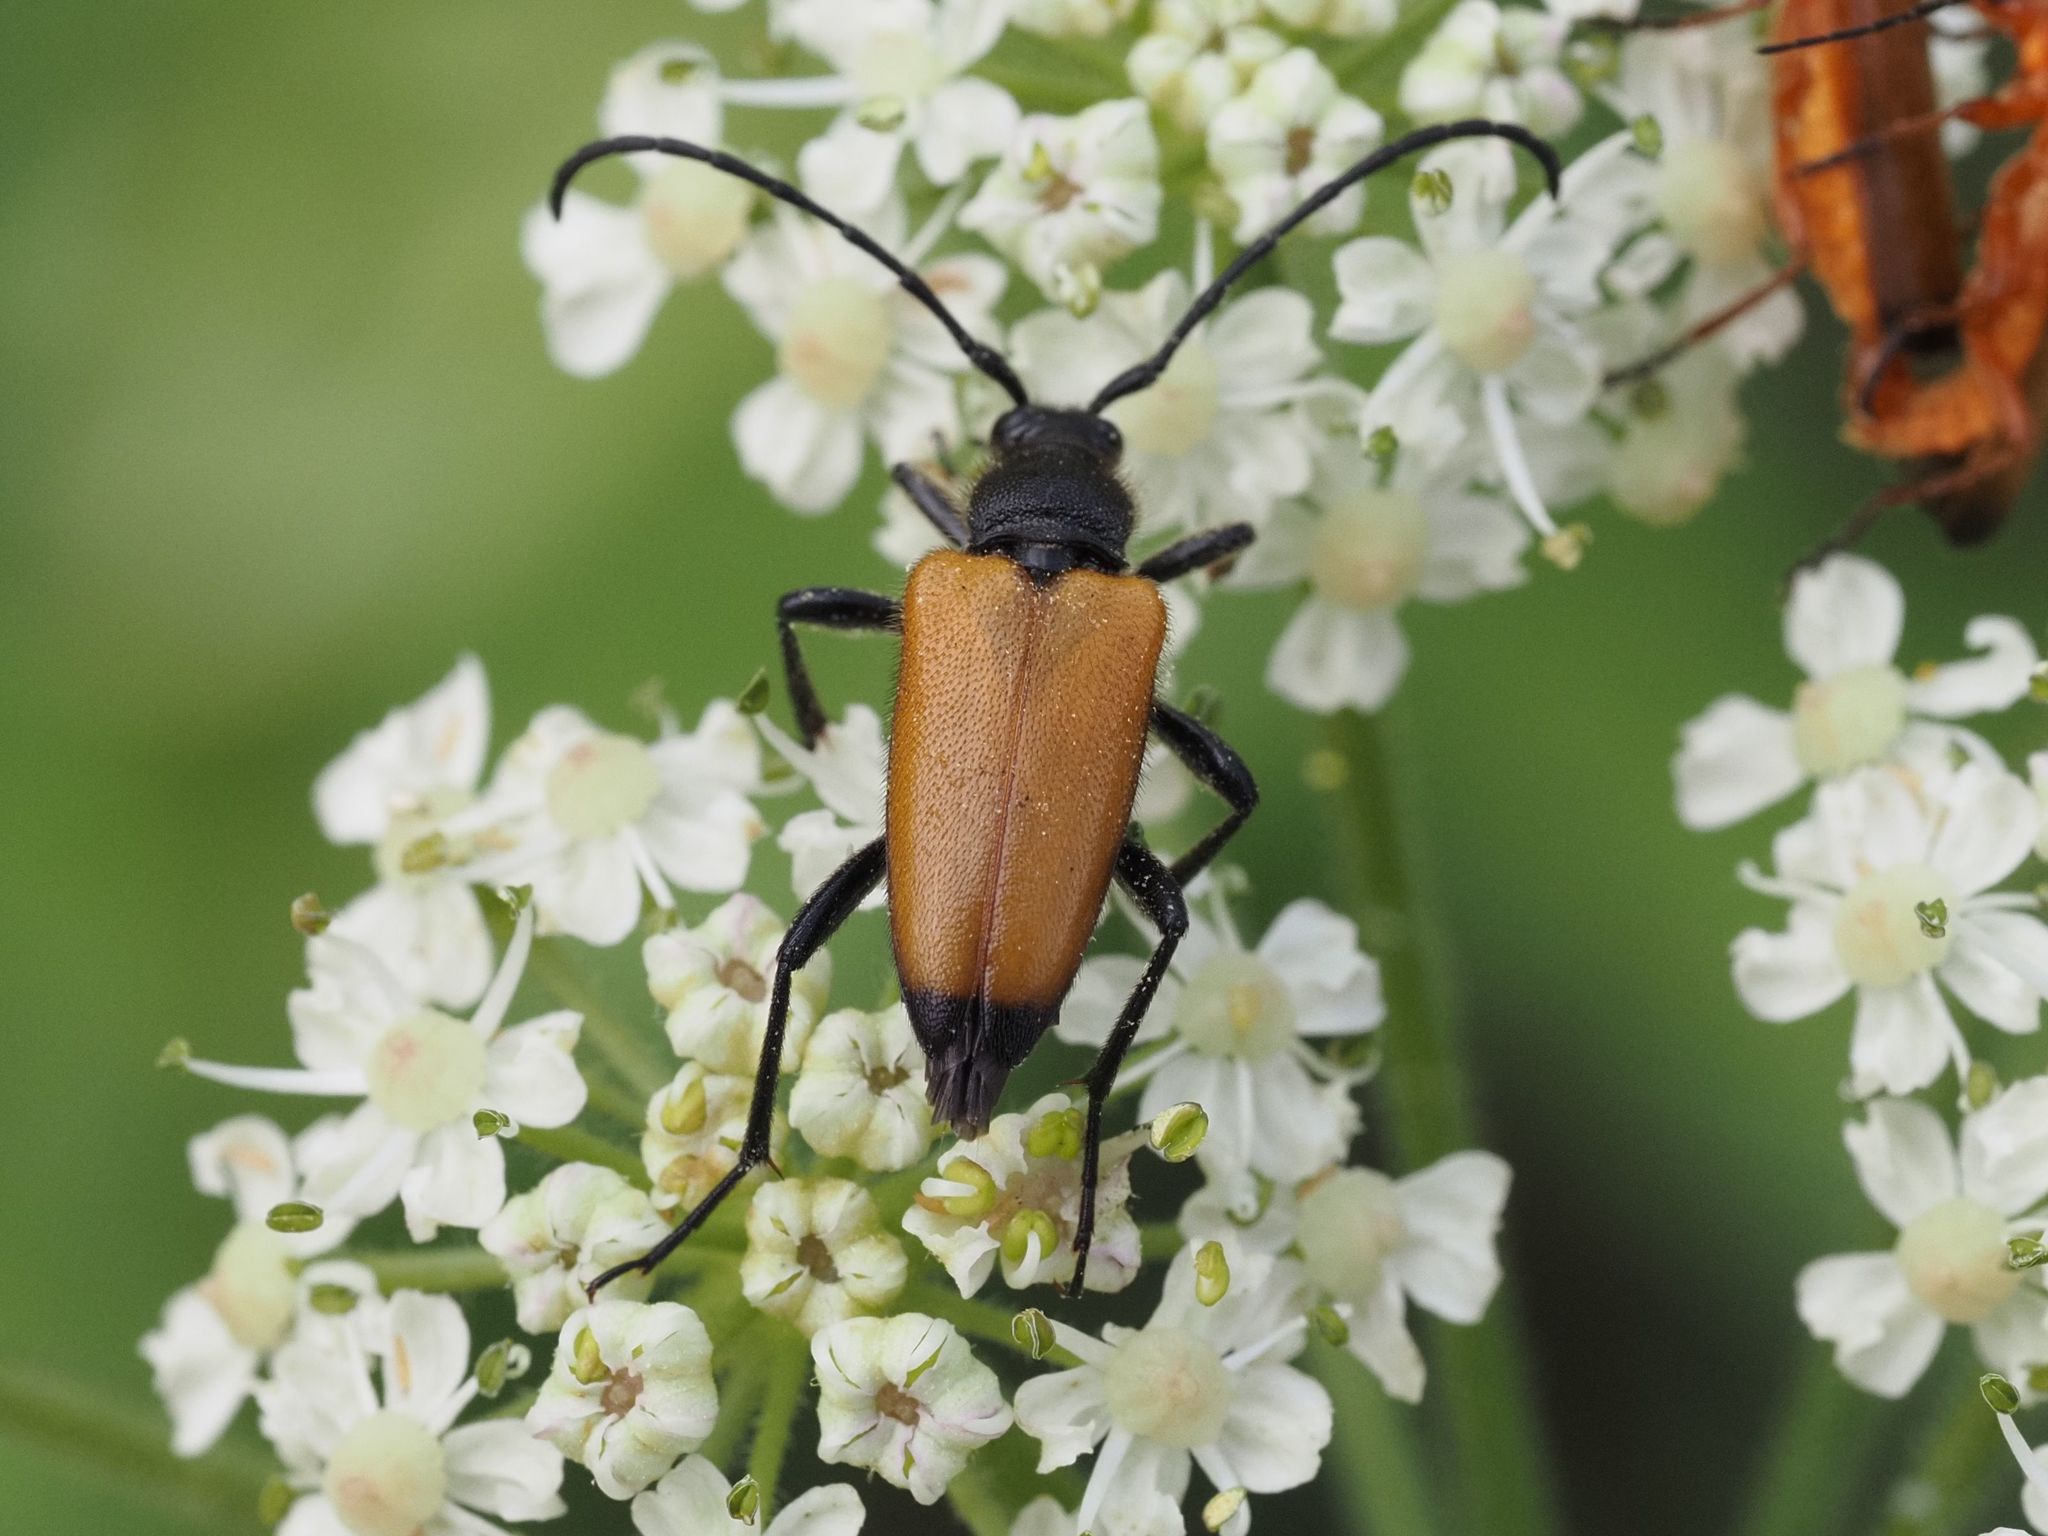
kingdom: Animalia
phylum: Arthropoda
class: Insecta
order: Coleoptera
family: Cerambycidae
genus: Paracorymbia
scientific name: Paracorymbia fulva
